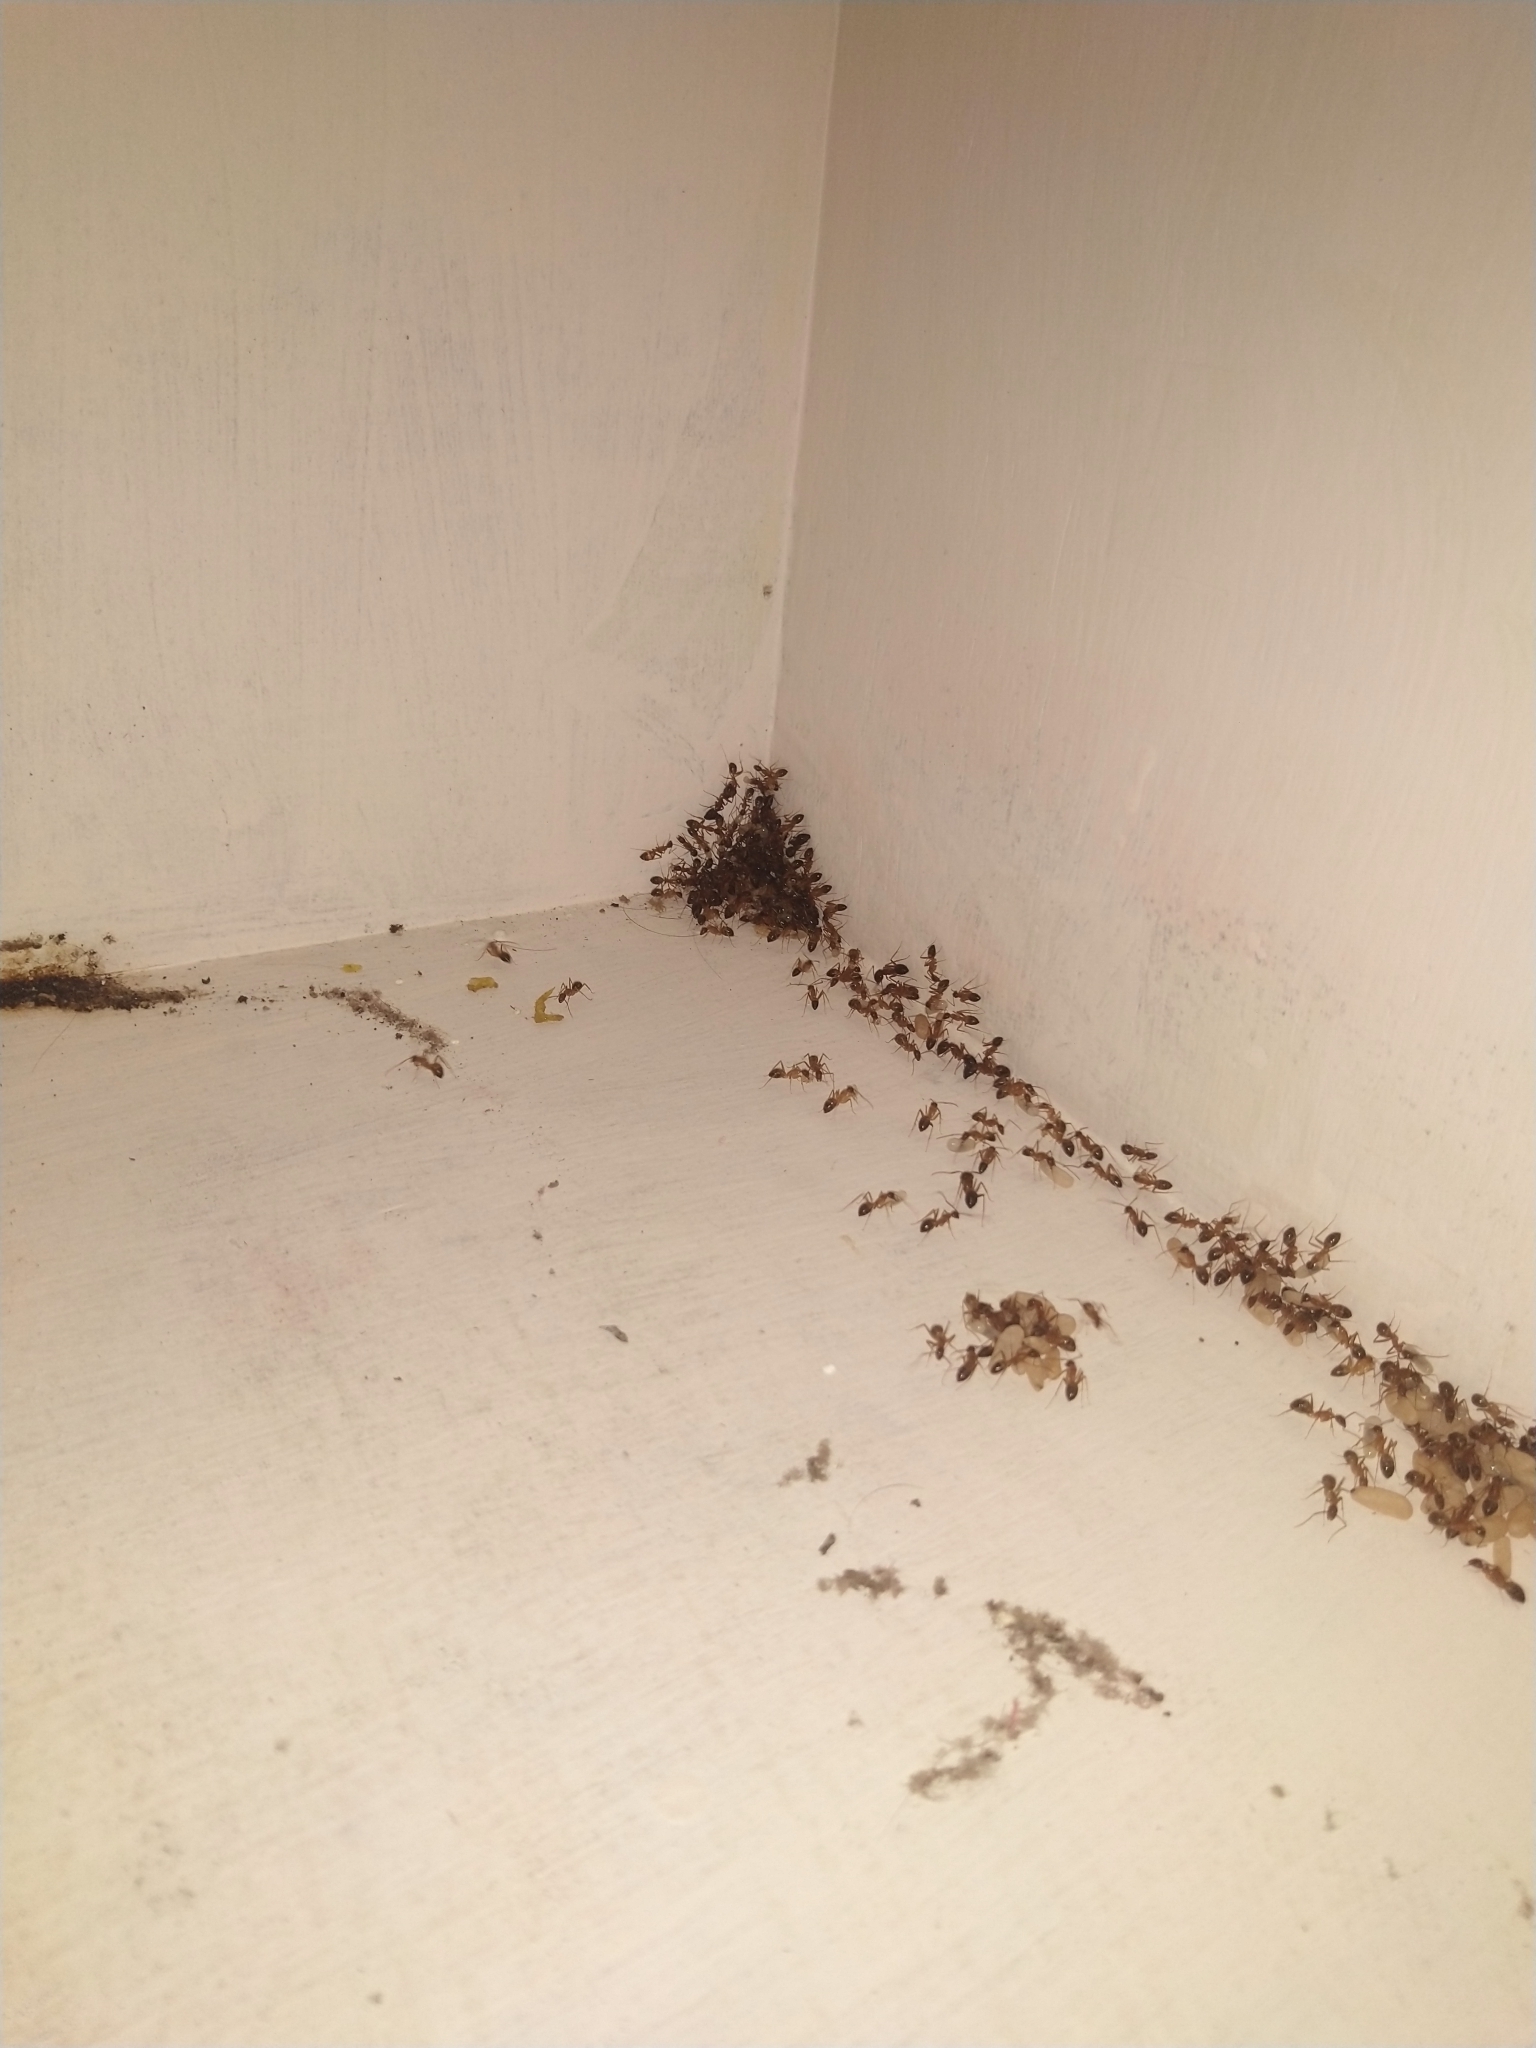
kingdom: Animalia
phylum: Arthropoda
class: Insecta
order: Hymenoptera
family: Formicidae
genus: Camponotus
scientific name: Camponotus
